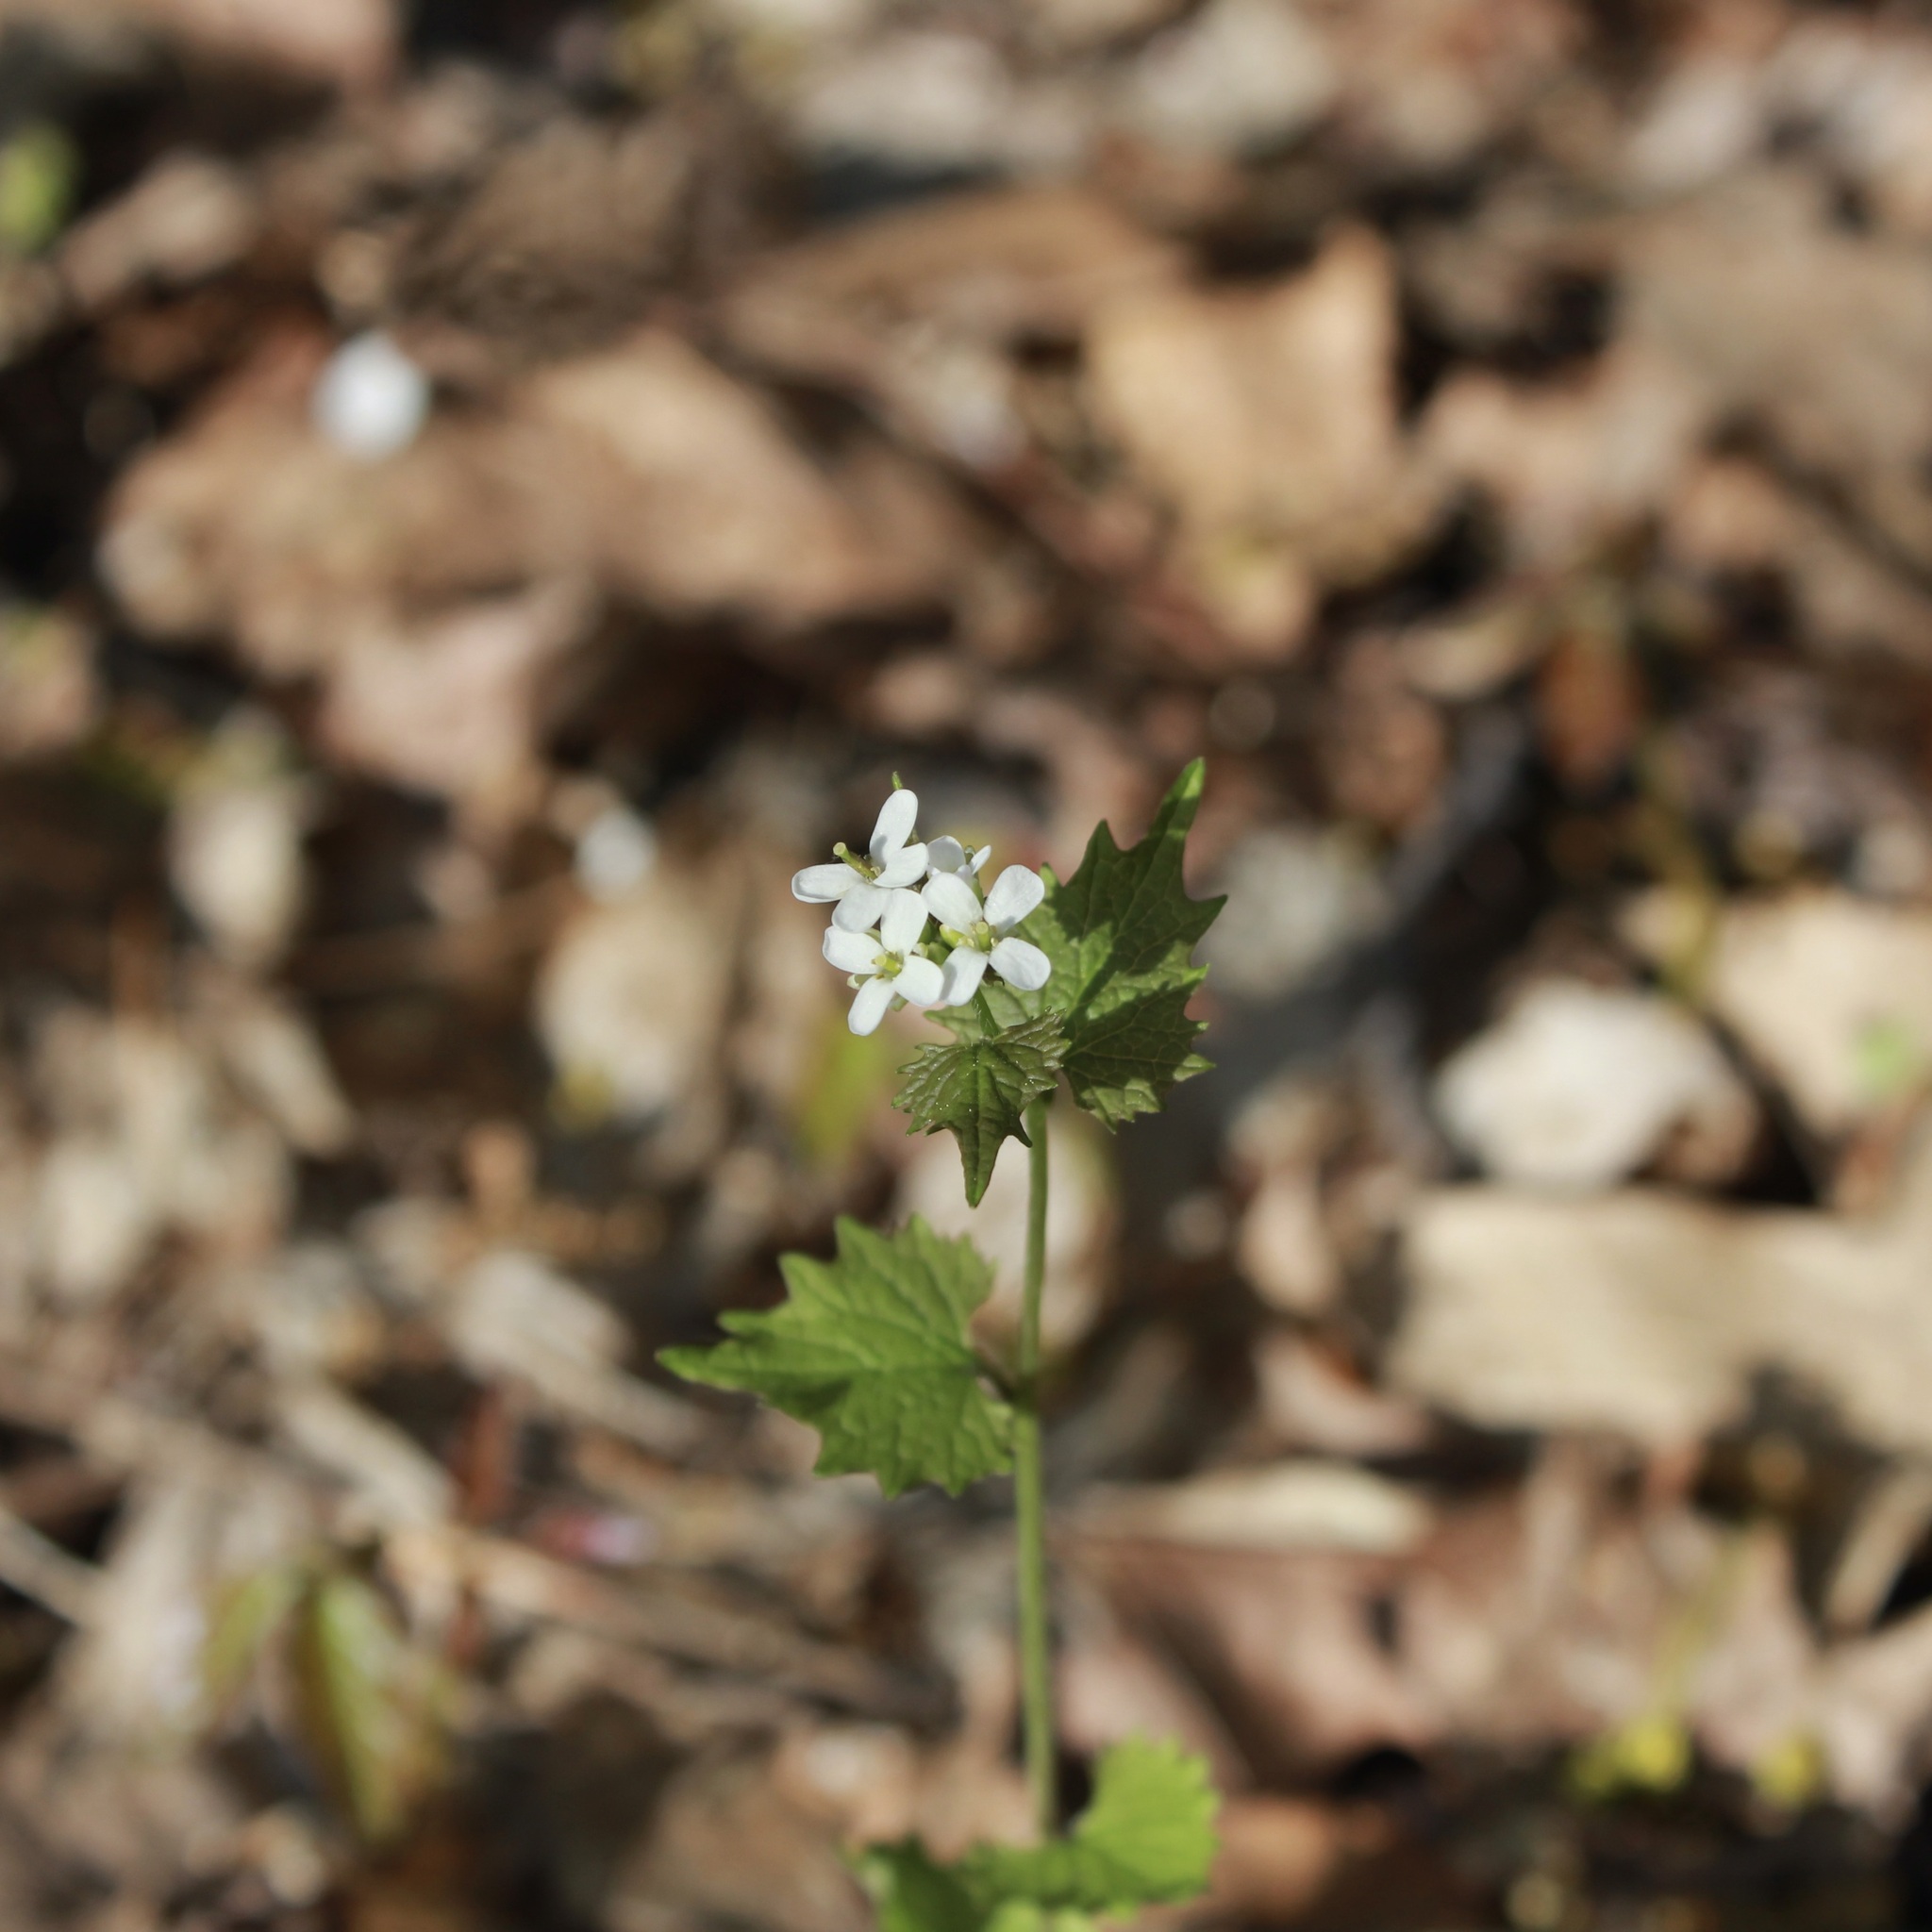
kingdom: Plantae
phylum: Tracheophyta
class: Magnoliopsida
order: Brassicales
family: Brassicaceae
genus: Alliaria
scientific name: Alliaria petiolata
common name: Garlic mustard
